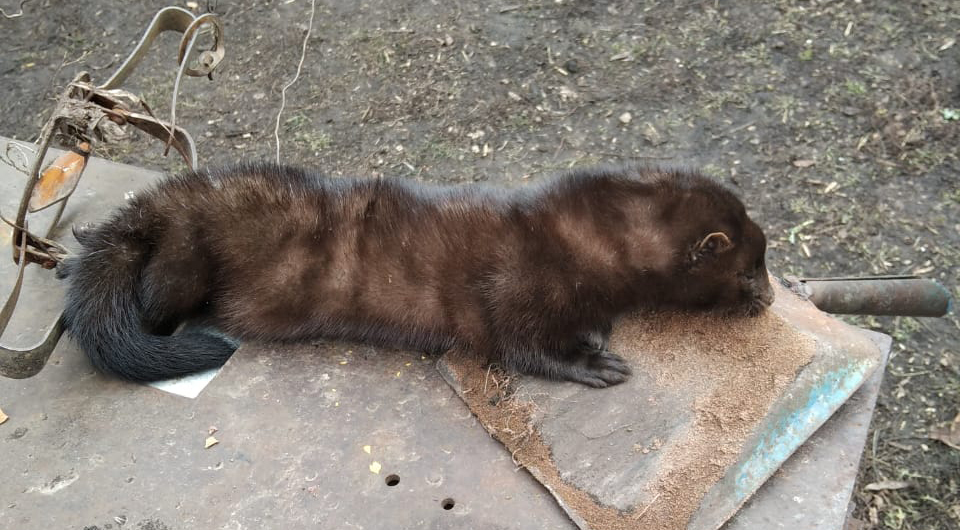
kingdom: Animalia
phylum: Chordata
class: Mammalia
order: Carnivora
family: Mustelidae
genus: Mustela
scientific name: Mustela
